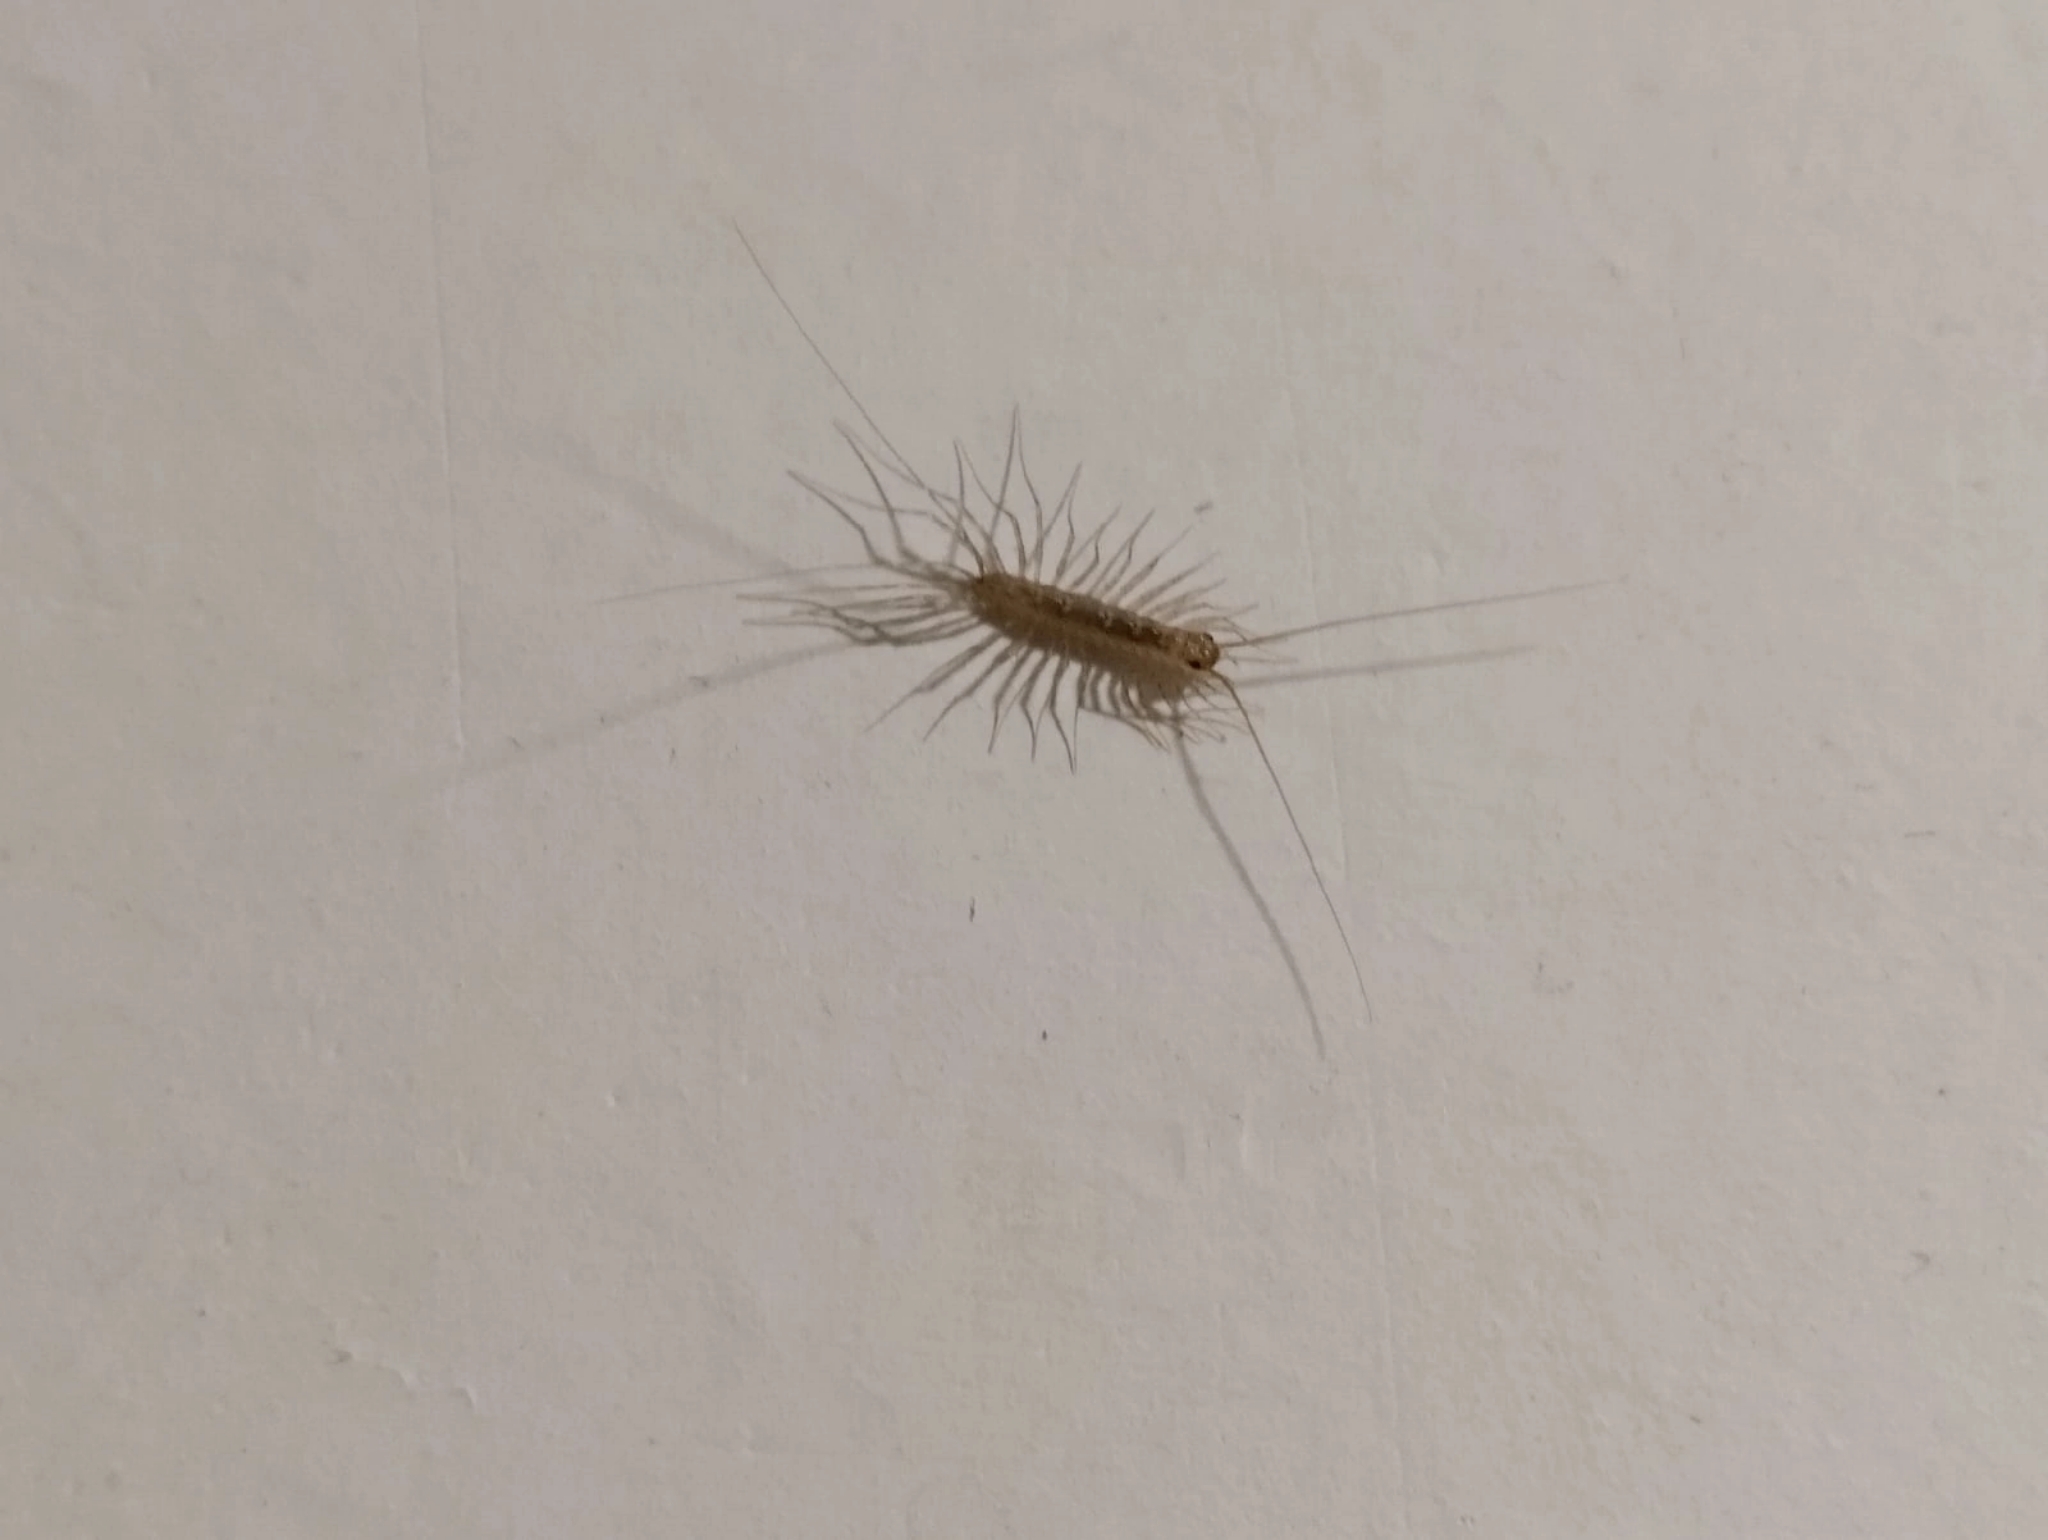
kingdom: Animalia
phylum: Arthropoda
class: Chilopoda
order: Scutigeromorpha
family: Scutigeridae
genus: Scutigera
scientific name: Scutigera coleoptrata
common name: House centipede
